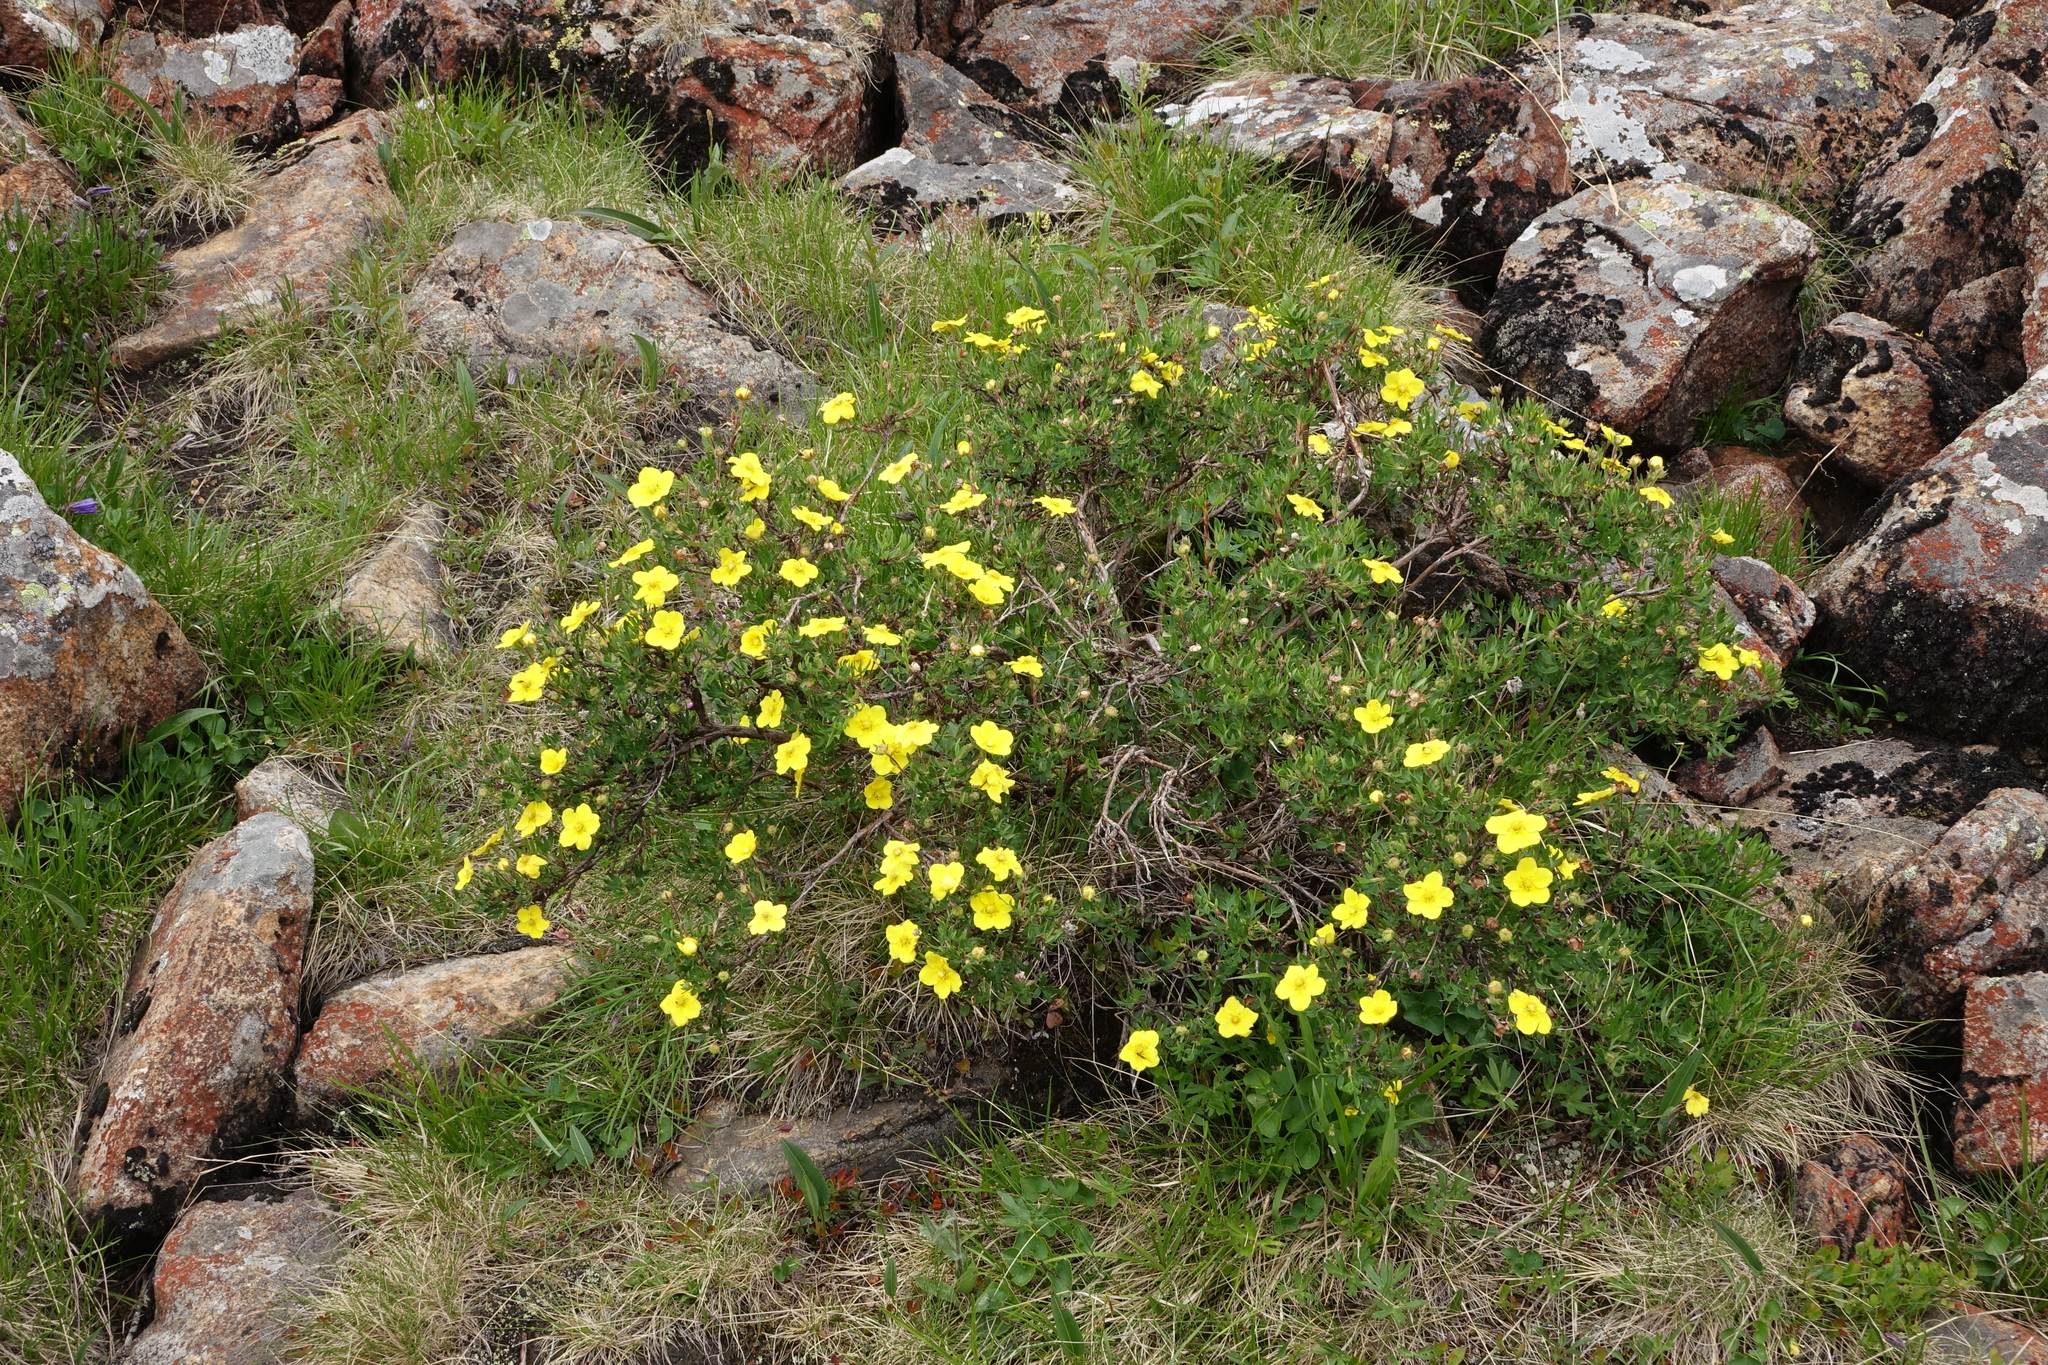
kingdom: Plantae
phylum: Tracheophyta
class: Magnoliopsida
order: Rosales
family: Rosaceae
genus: Dasiphora
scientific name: Dasiphora fruticosa
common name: Shrubby cinquefoil
